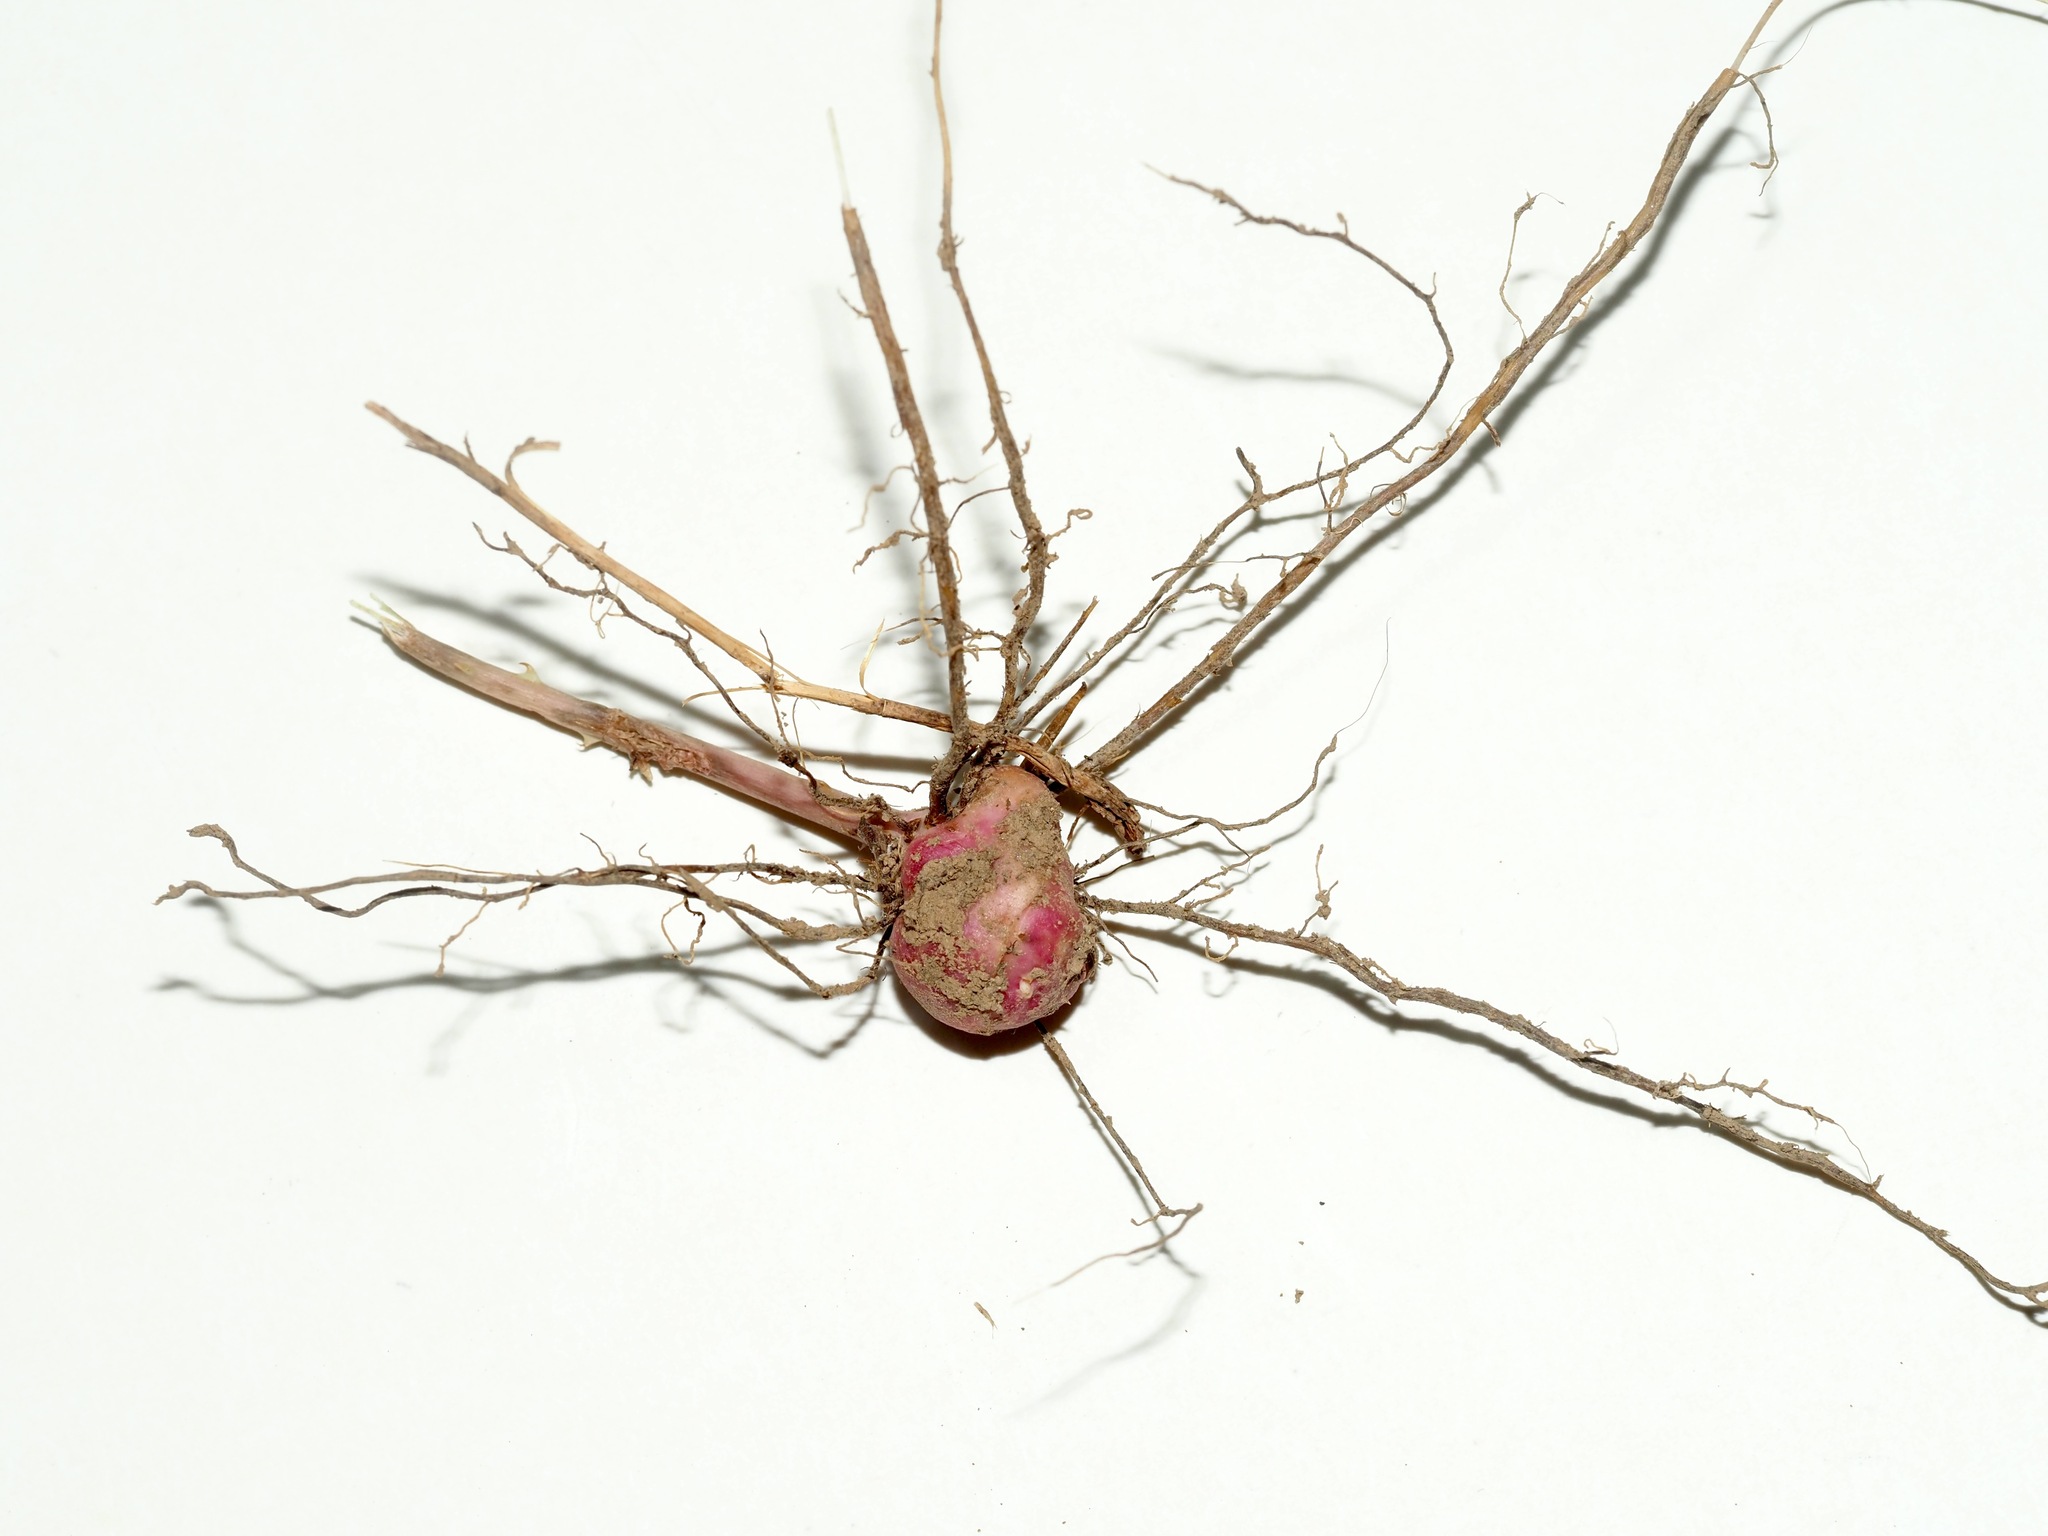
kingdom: Animalia
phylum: Arthropoda
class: Insecta
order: Hymenoptera
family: Cynipidae
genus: Diastrophus
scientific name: Diastrophus
